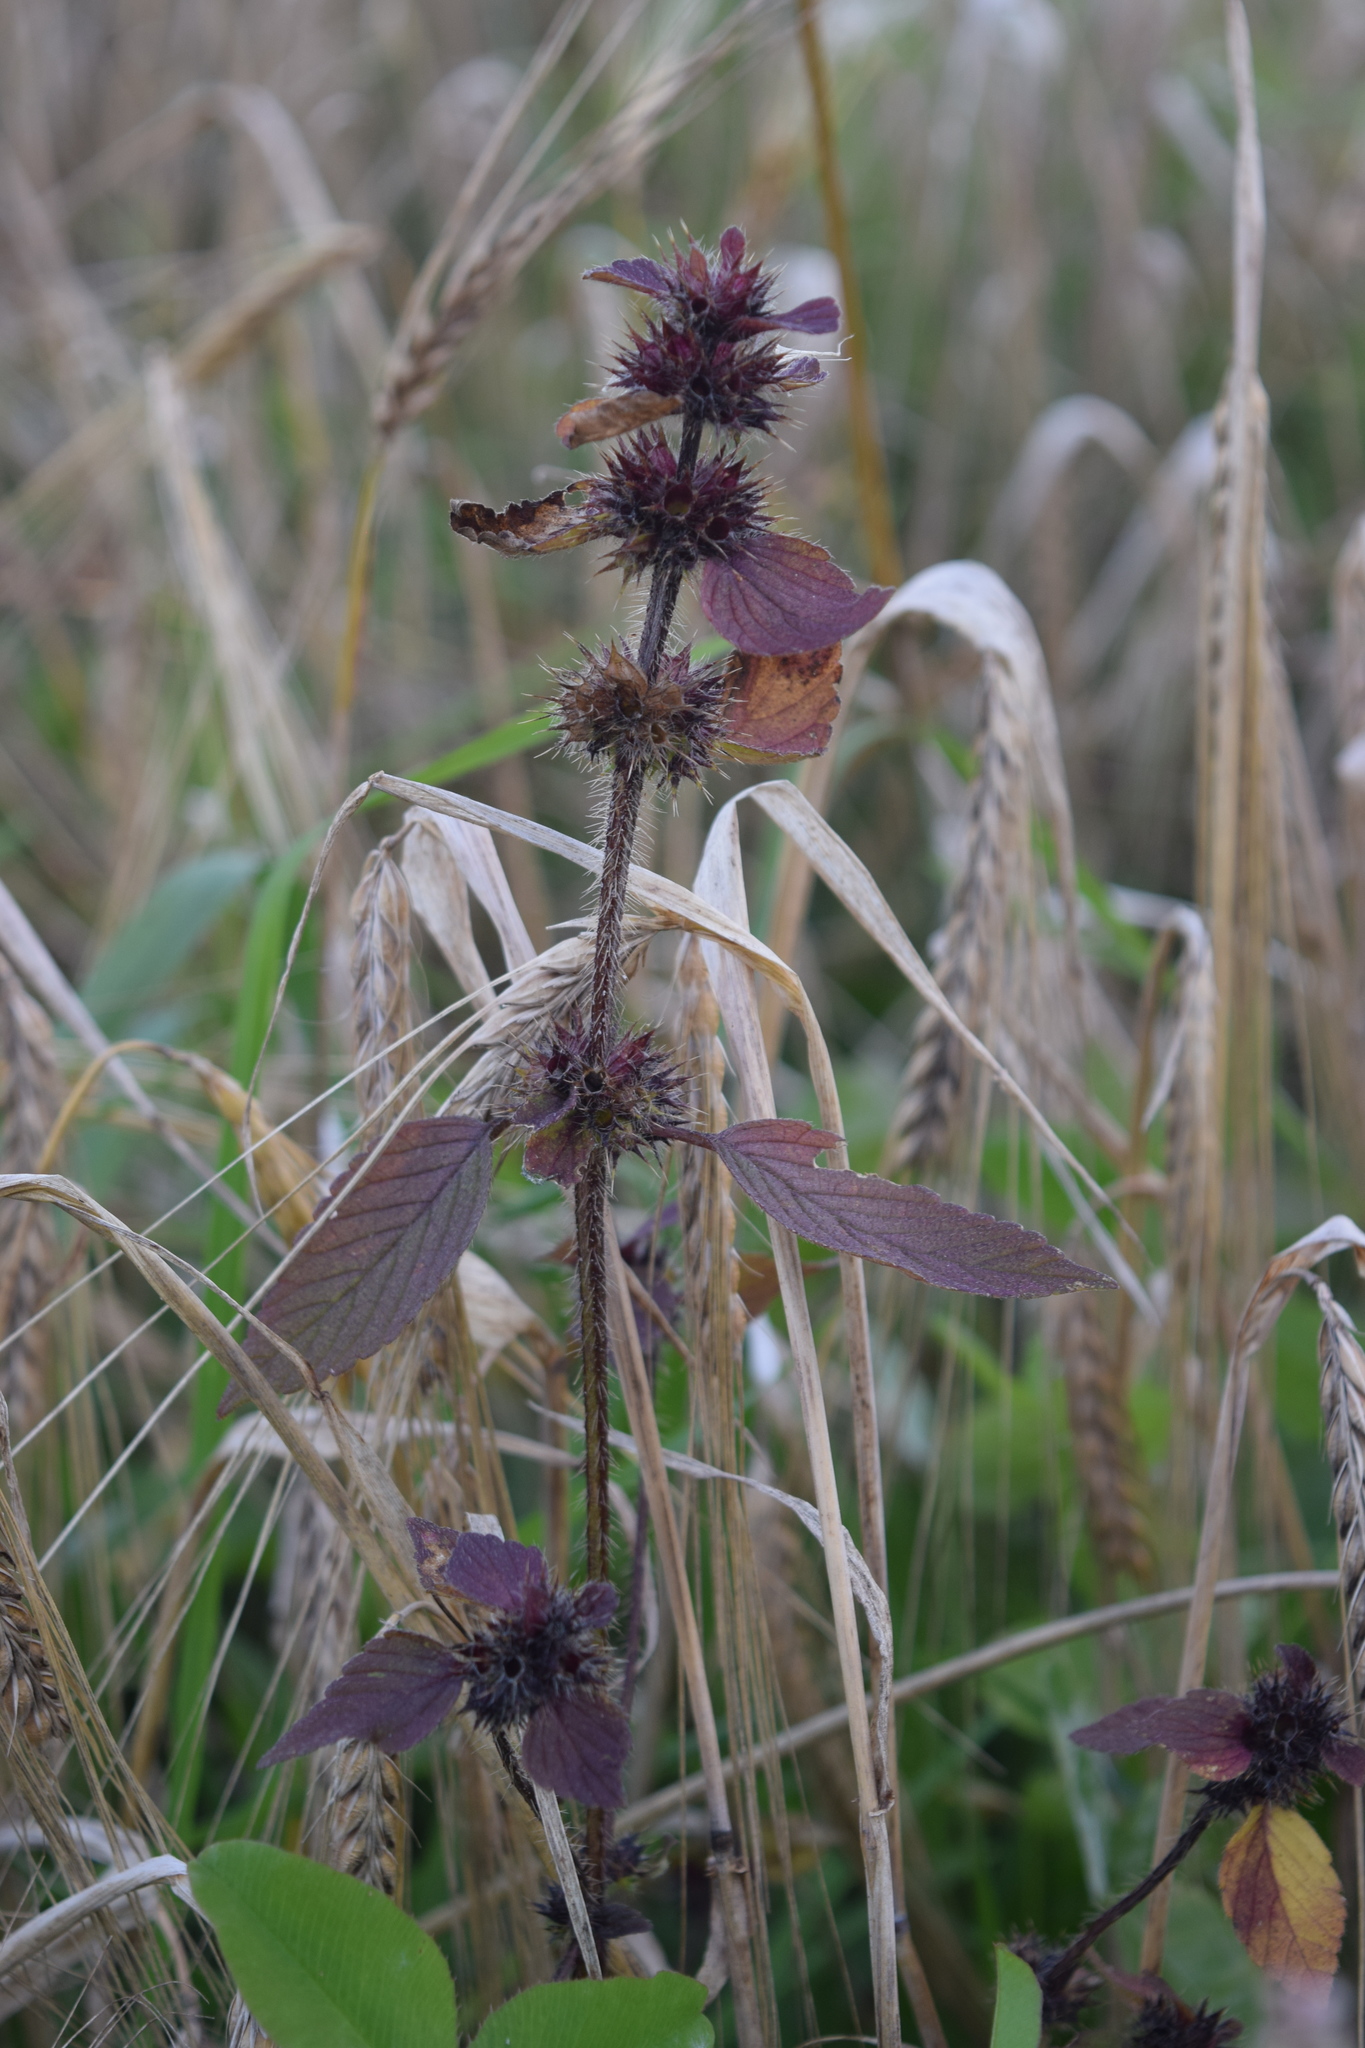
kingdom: Plantae
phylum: Tracheophyta
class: Magnoliopsida
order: Lamiales
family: Lamiaceae
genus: Galeopsis
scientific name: Galeopsis
